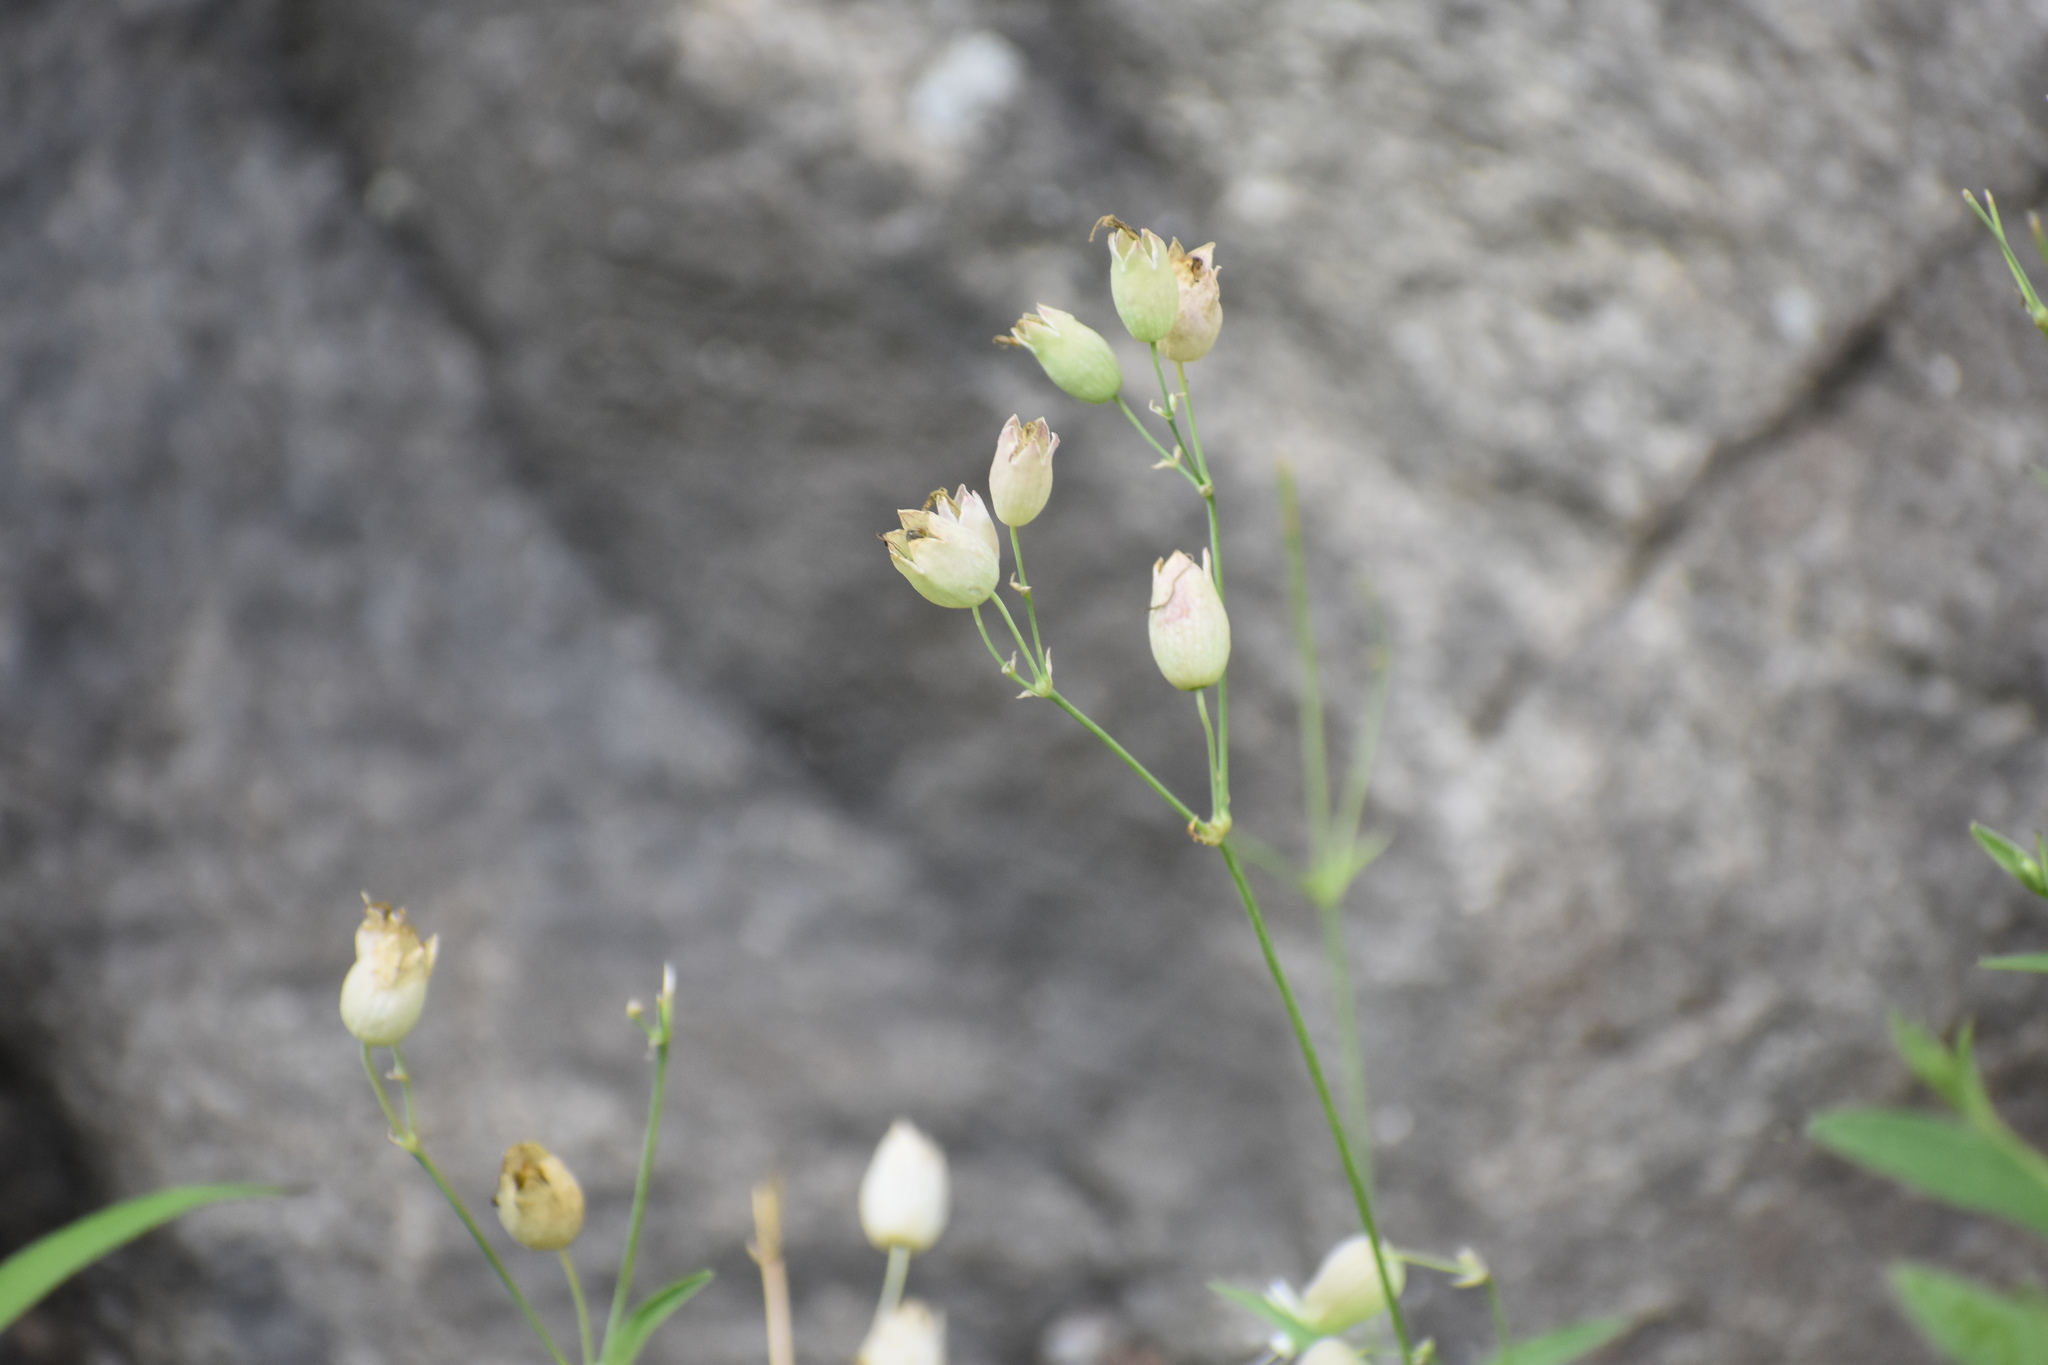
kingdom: Plantae
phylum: Tracheophyta
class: Magnoliopsida
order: Caryophyllales
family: Caryophyllaceae
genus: Silene
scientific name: Silene vulgaris
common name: Bladder campion
